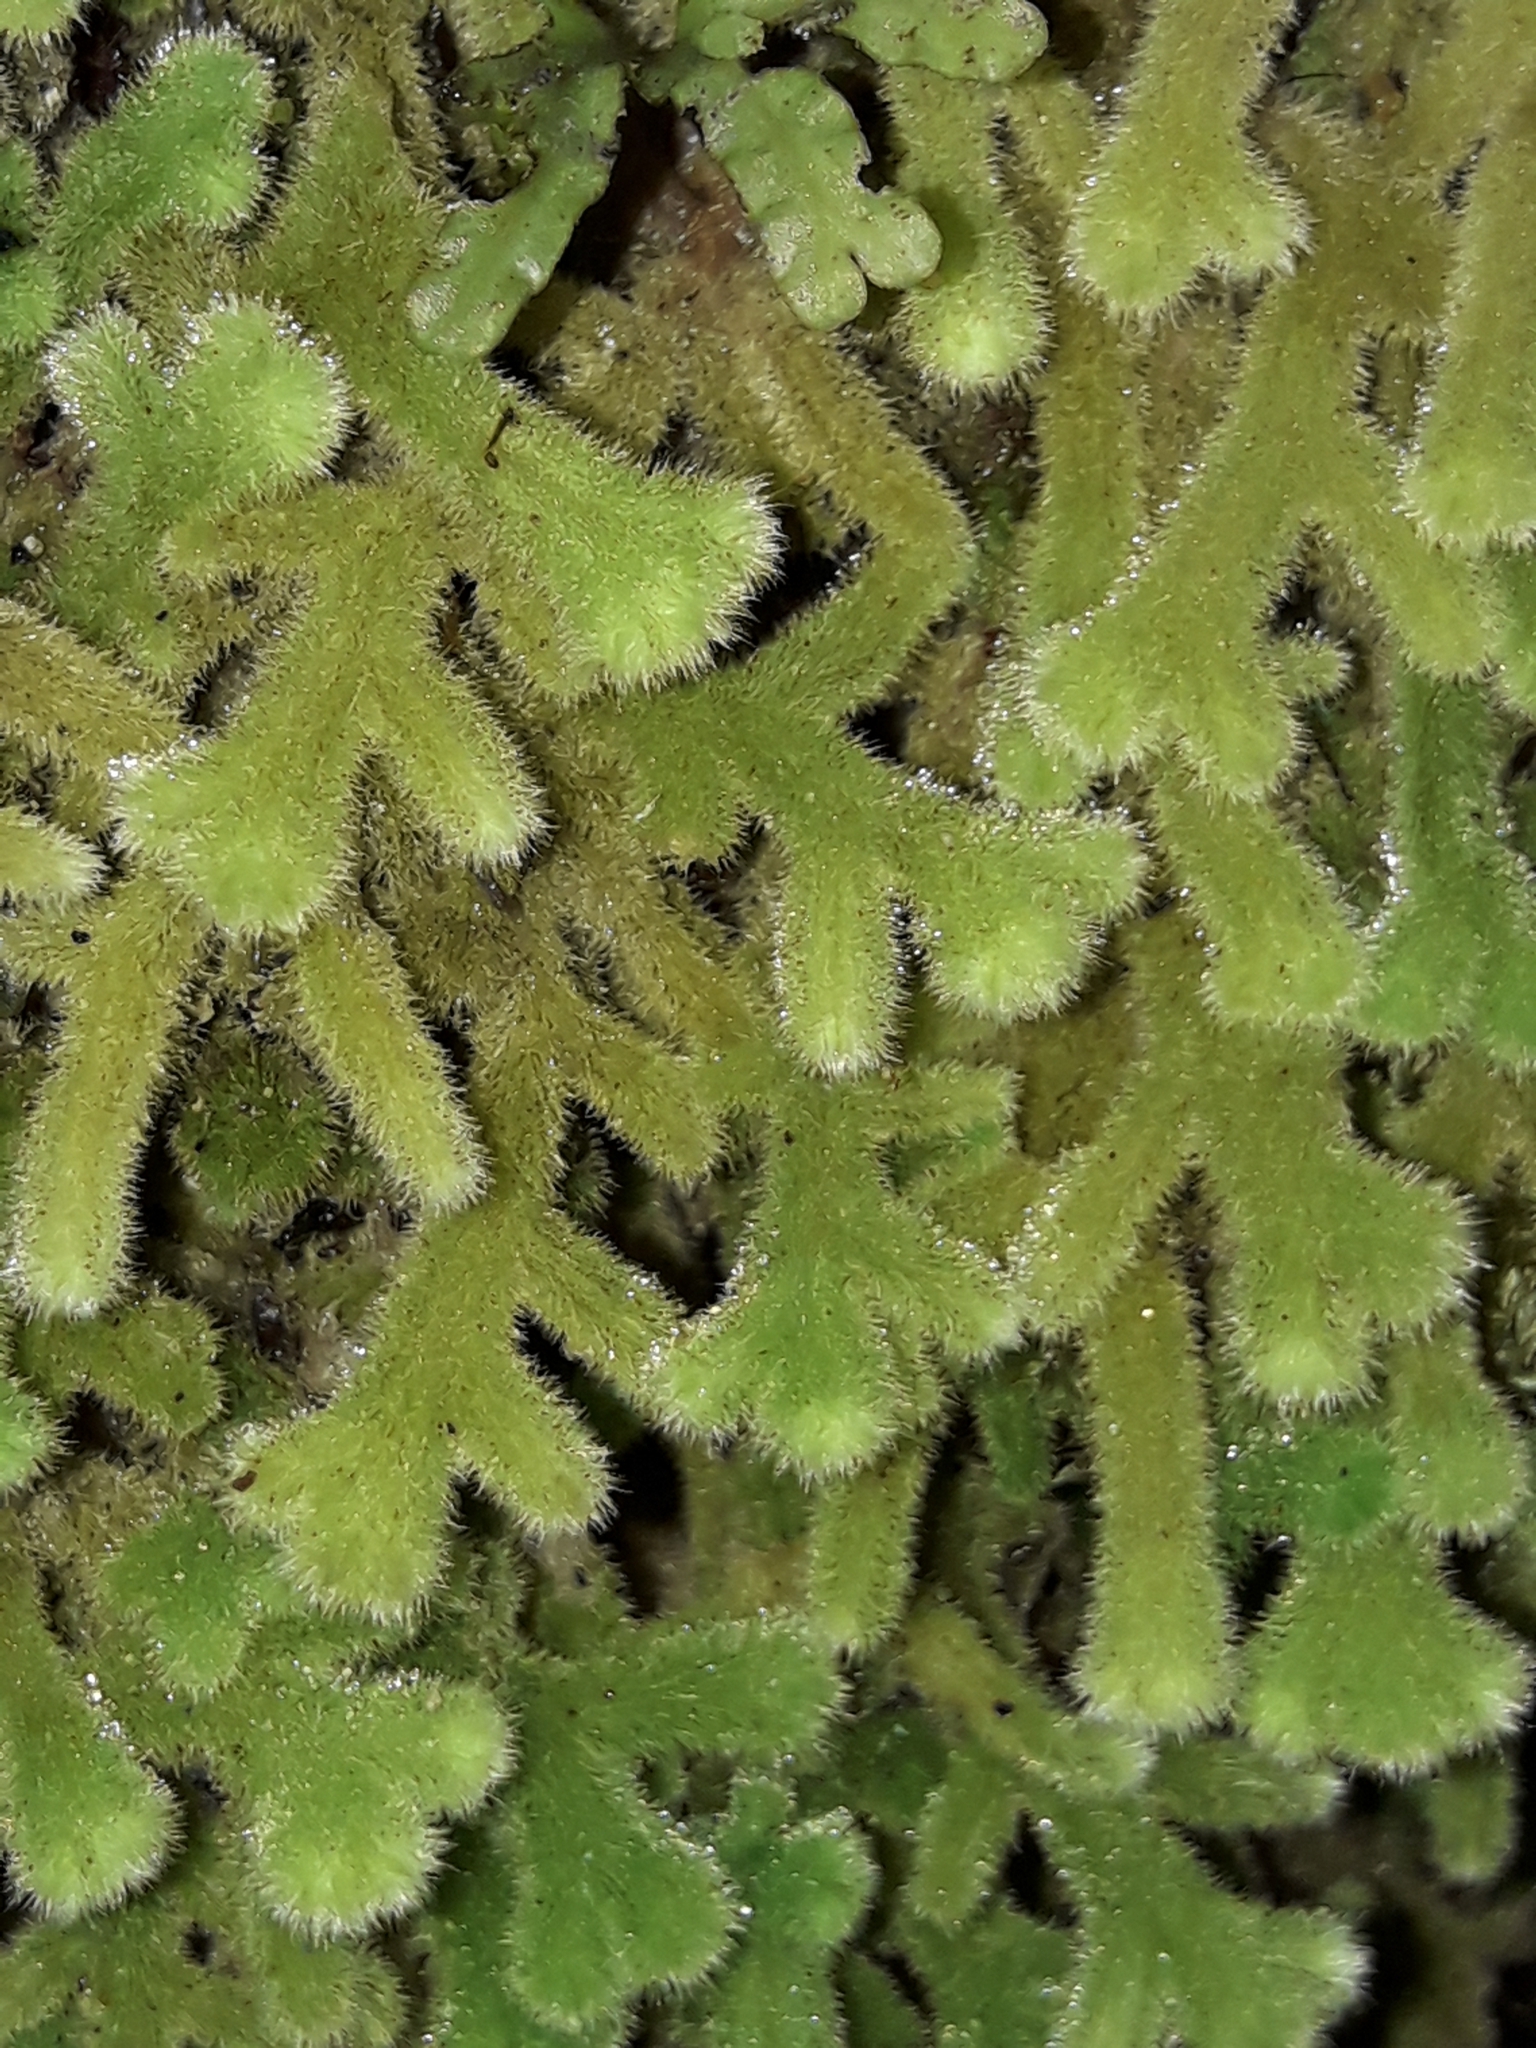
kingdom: Plantae
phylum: Marchantiophyta
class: Jungermanniopsida
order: Jungermanniales
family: Trichocoleaceae
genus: Leiomitra
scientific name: Leiomitra lanata
